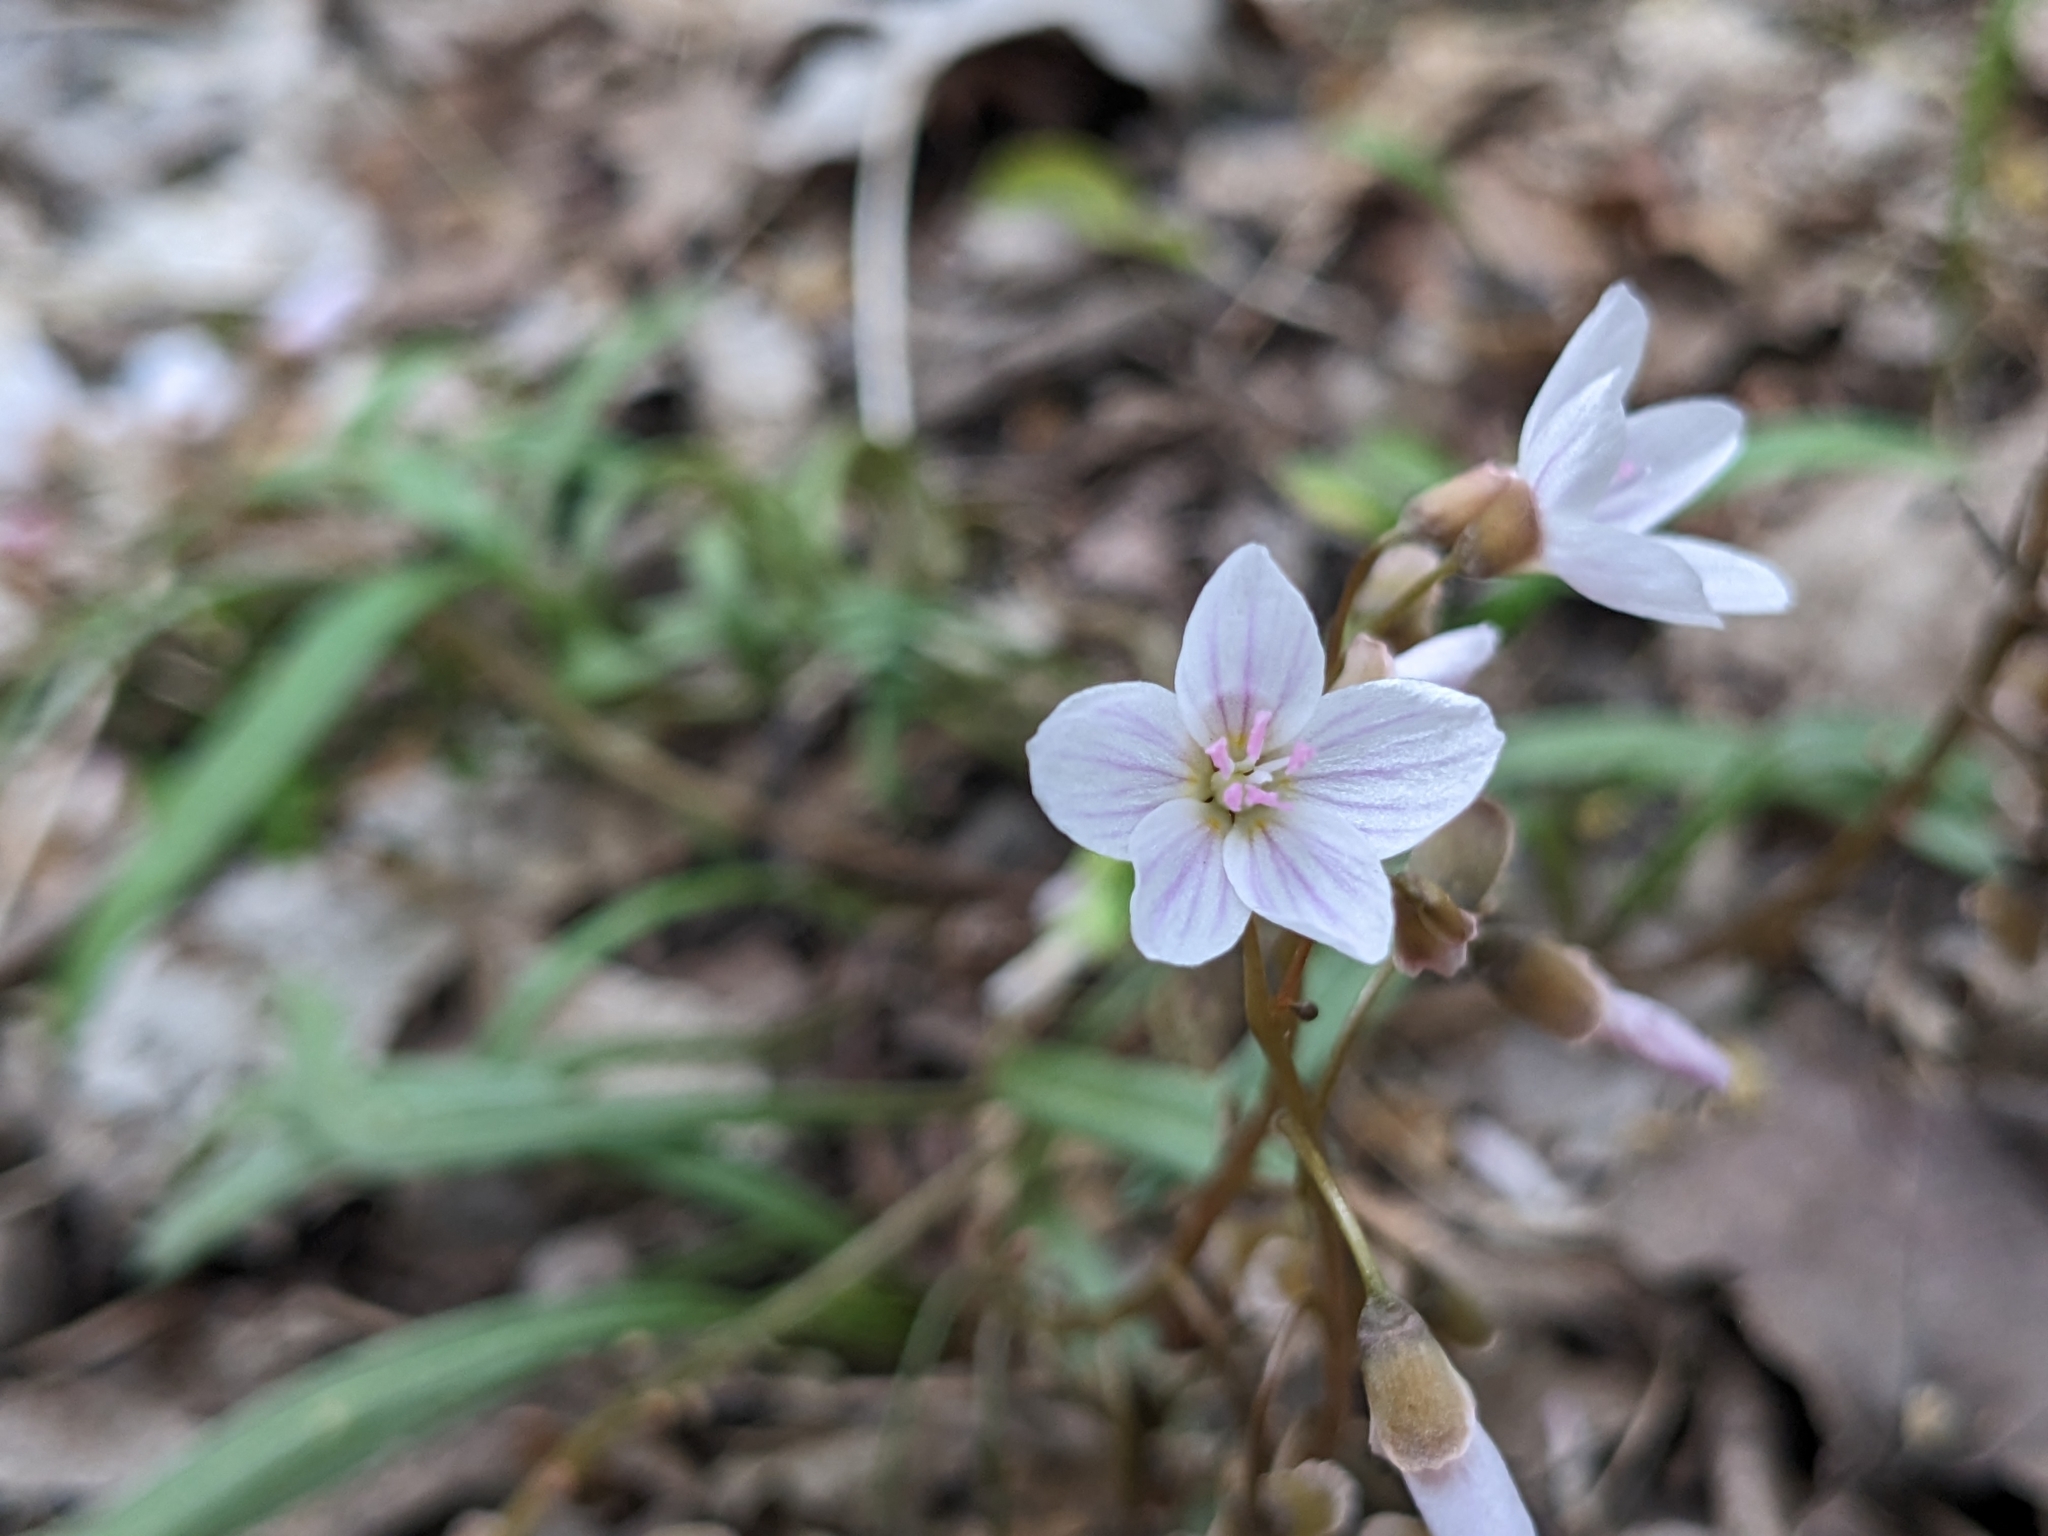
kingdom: Plantae
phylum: Tracheophyta
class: Magnoliopsida
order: Caryophyllales
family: Montiaceae
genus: Claytonia
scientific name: Claytonia virginica
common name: Virginia springbeauty
